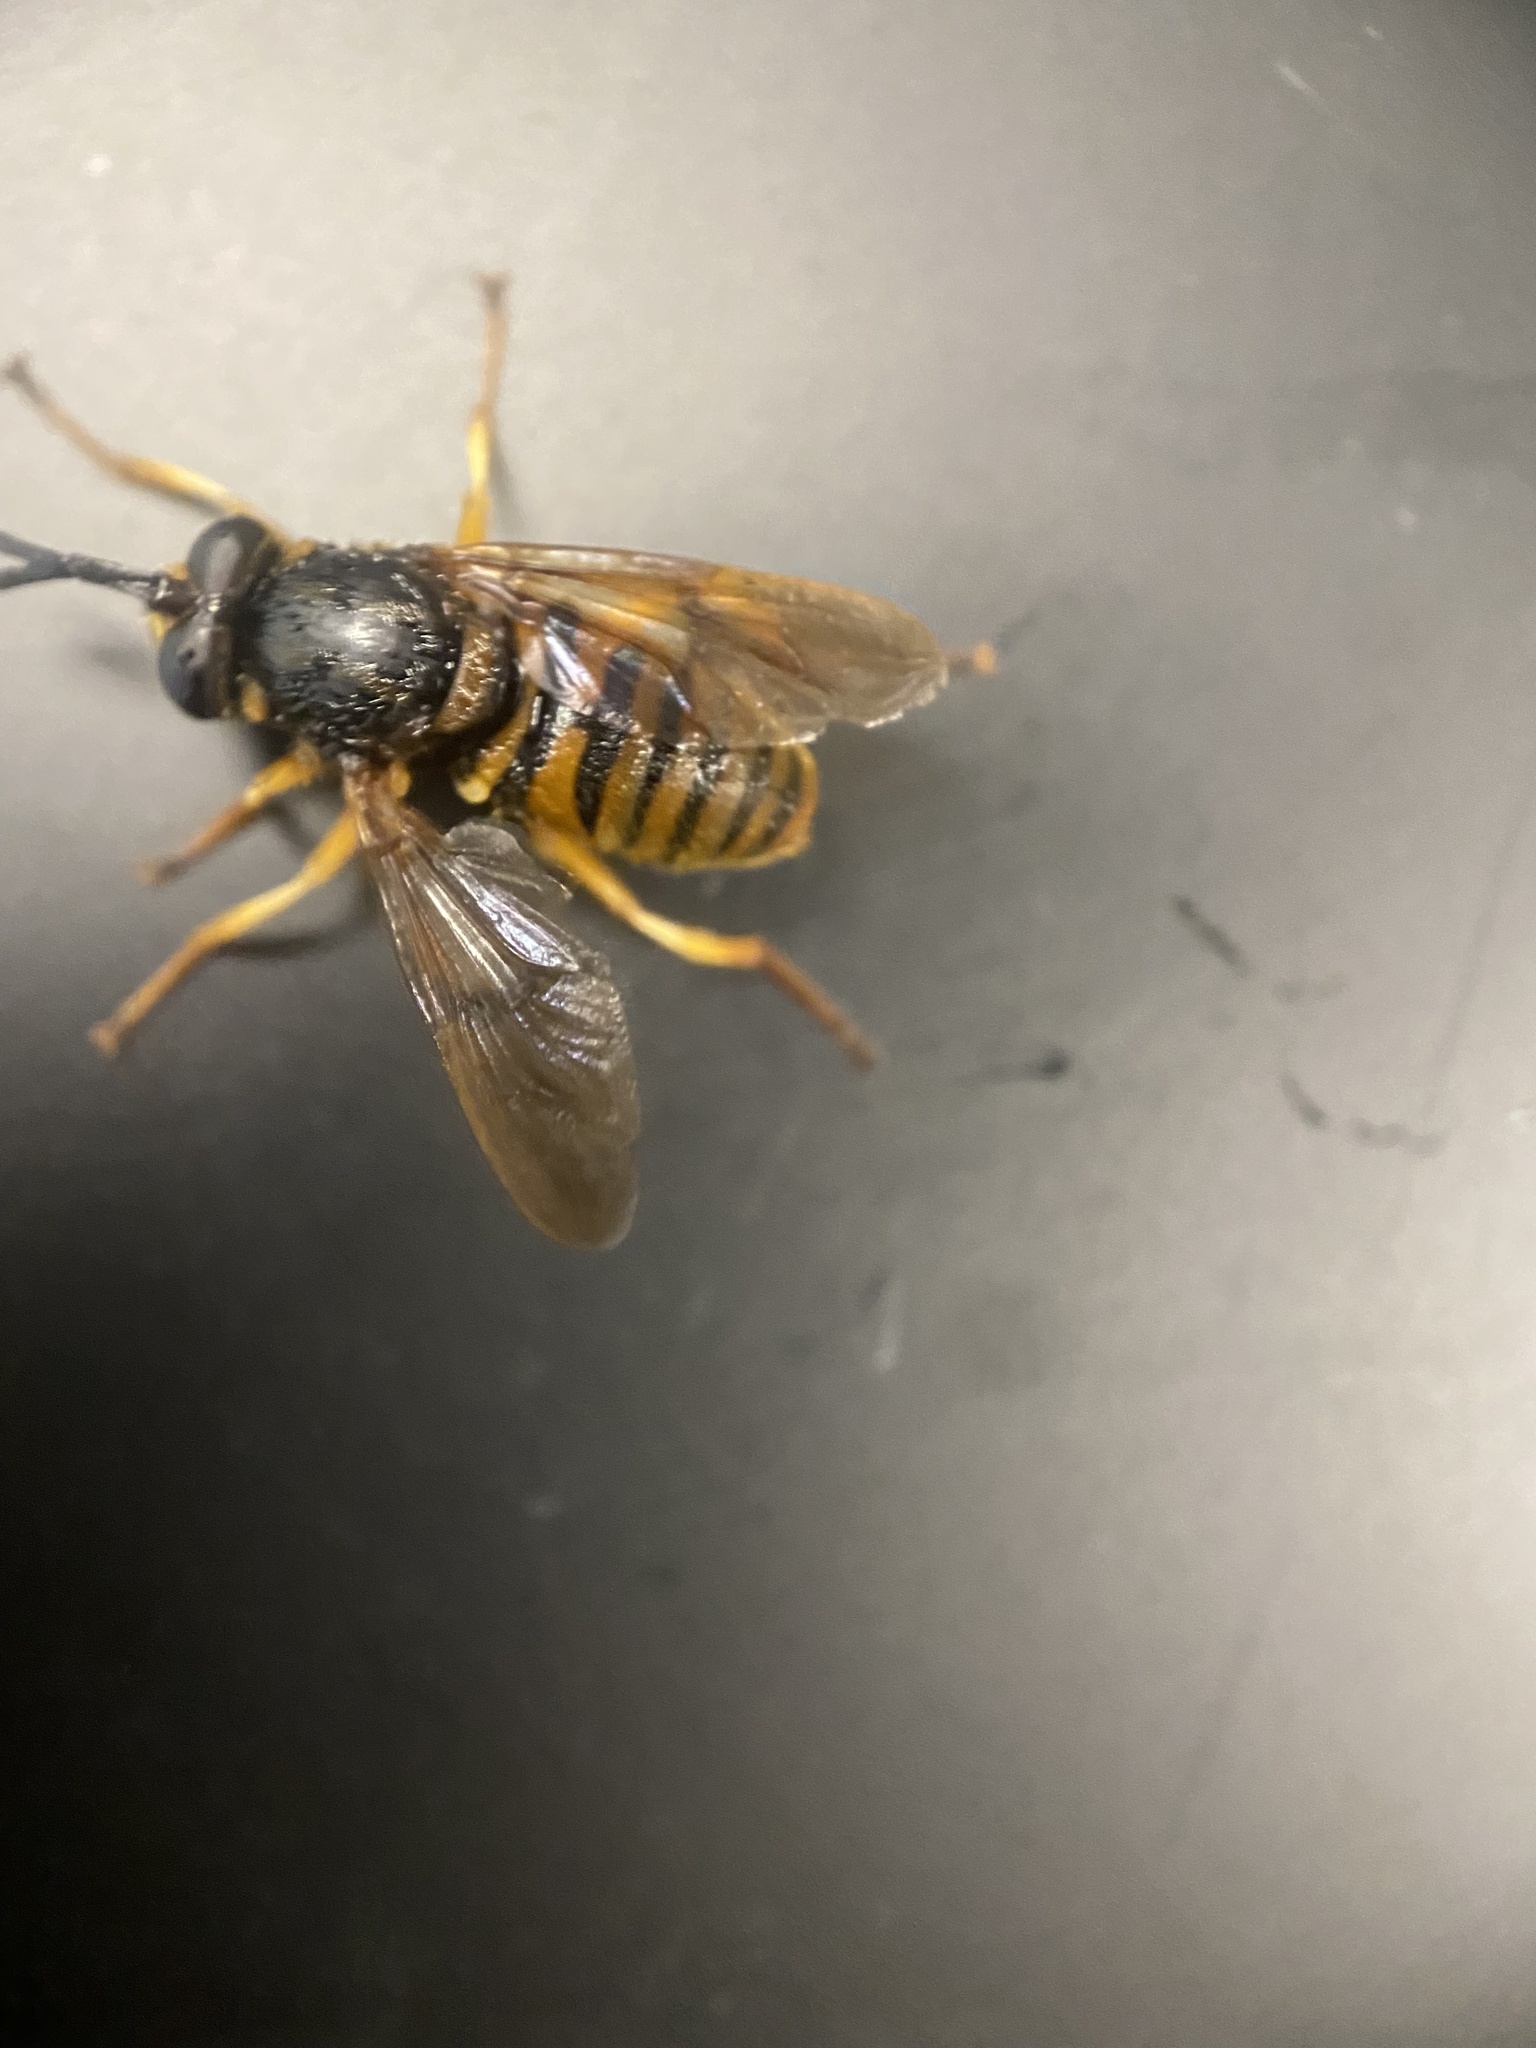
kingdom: Animalia
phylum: Arthropoda
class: Insecta
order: Diptera
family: Syrphidae
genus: Sphecomyia
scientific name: Sphecomyia vittata
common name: Long-horned yellowjacket fly
